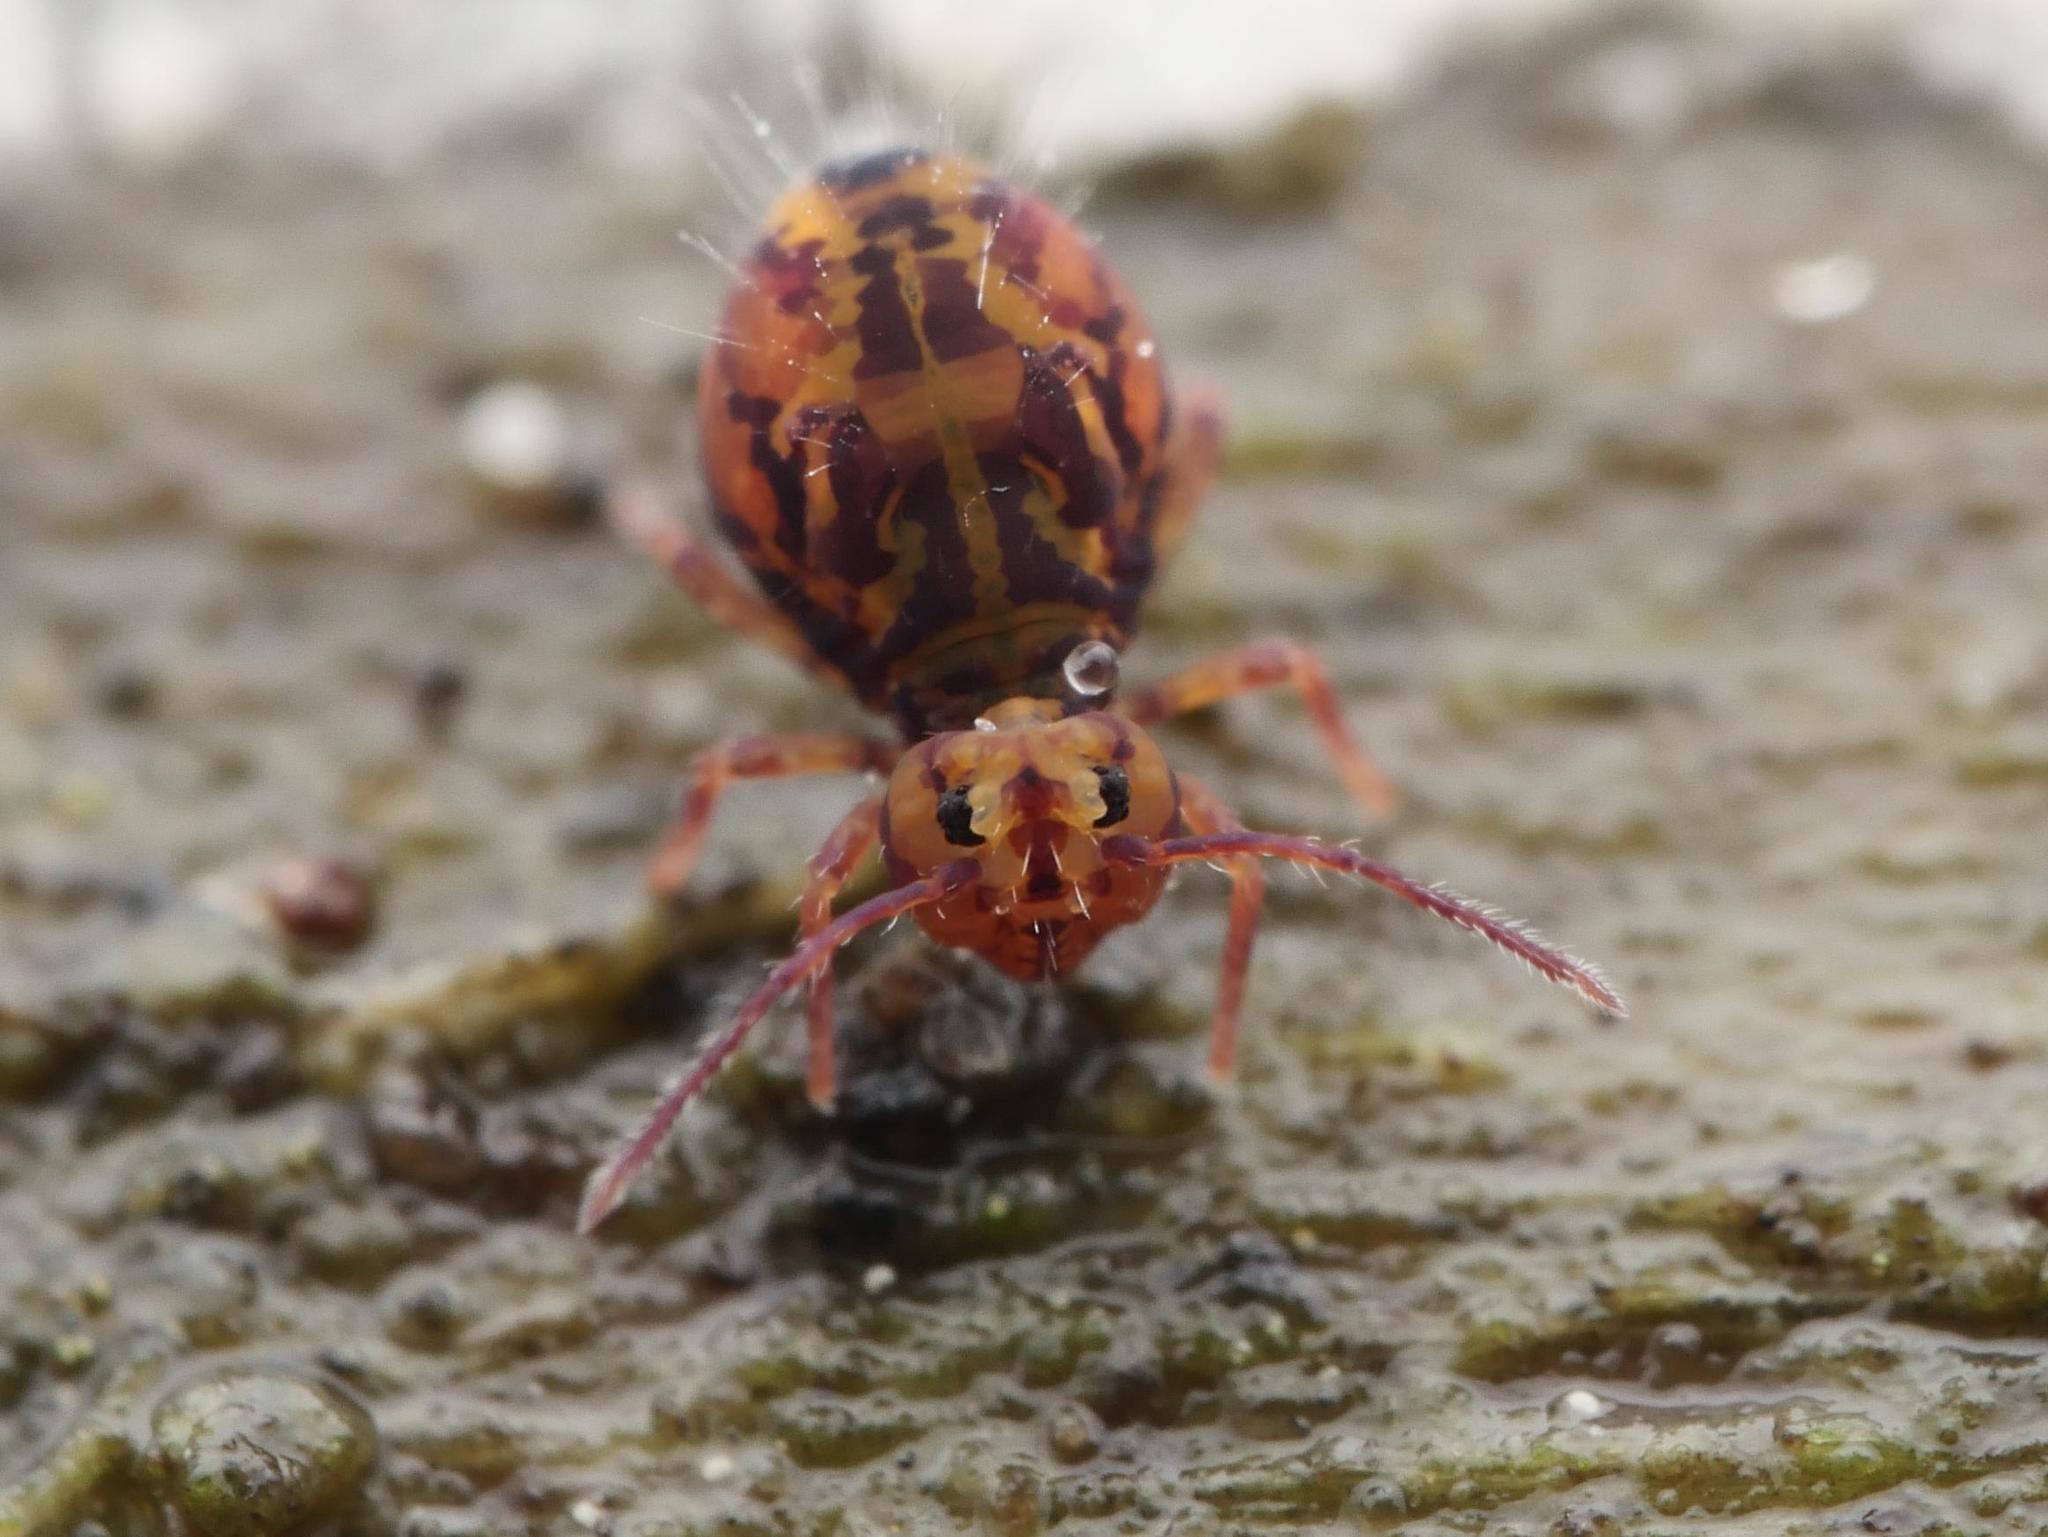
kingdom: Animalia
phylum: Arthropoda
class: Collembola
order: Symphypleona
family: Dicyrtomidae
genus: Dicyrtomina
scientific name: Dicyrtomina ornata
